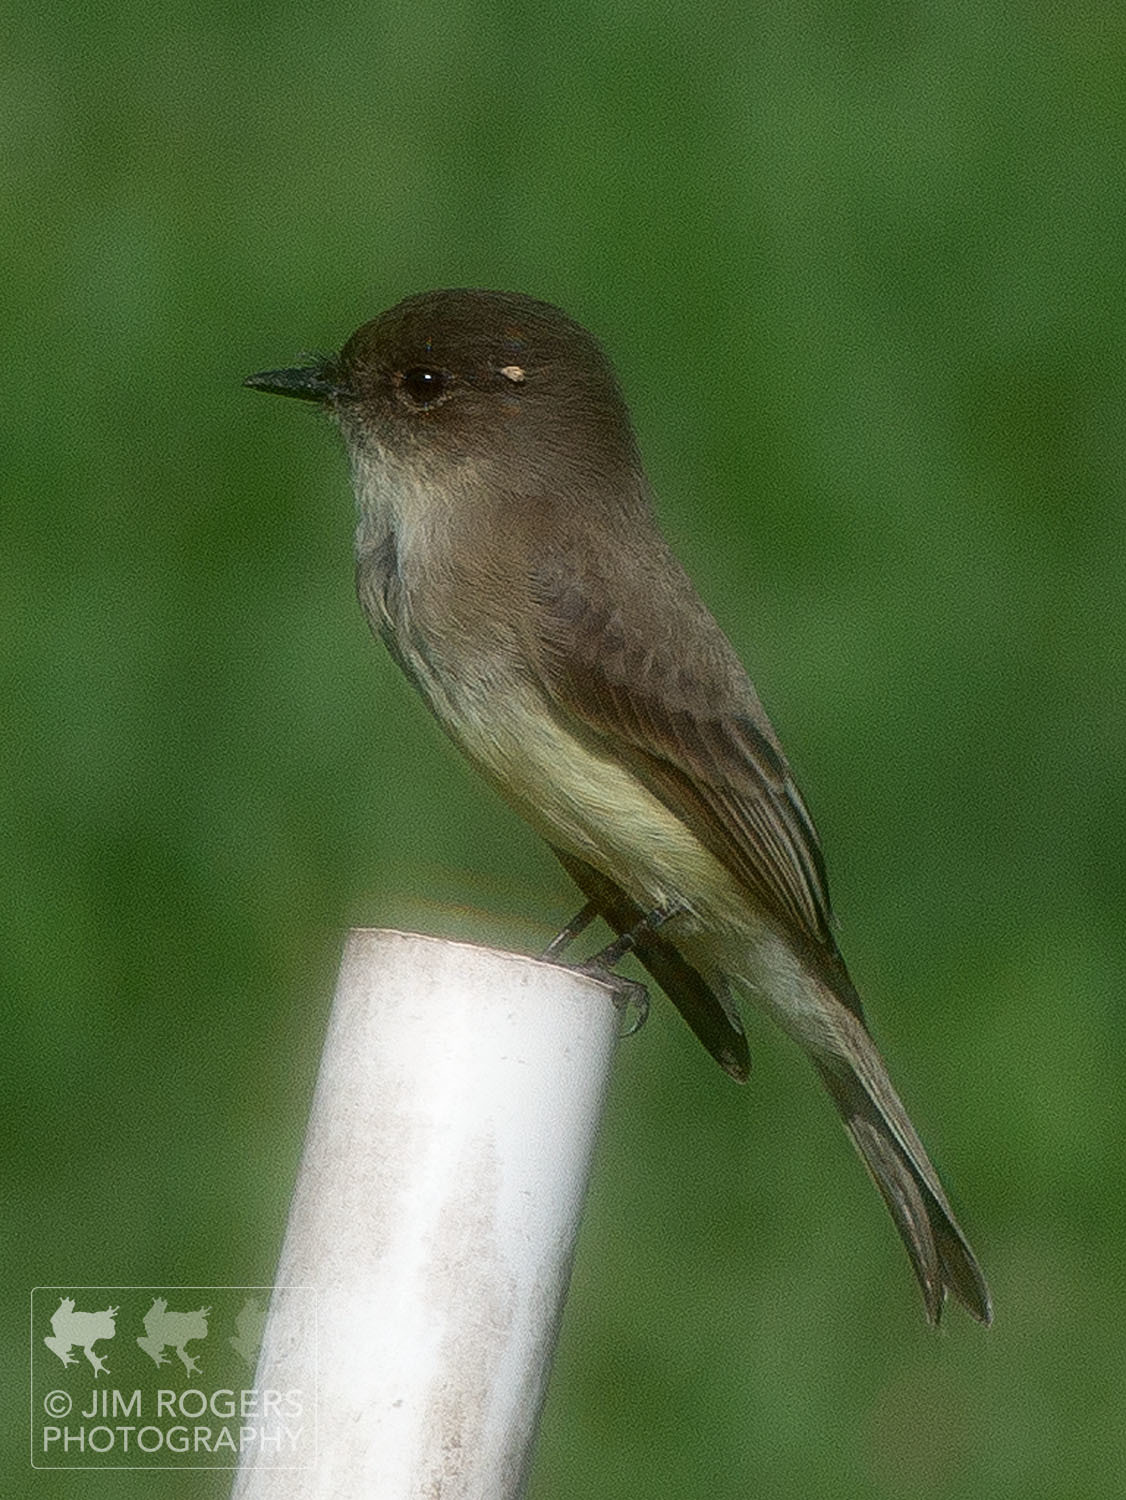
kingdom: Animalia
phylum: Chordata
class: Aves
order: Passeriformes
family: Tyrannidae
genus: Sayornis
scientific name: Sayornis phoebe
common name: Eastern phoebe
